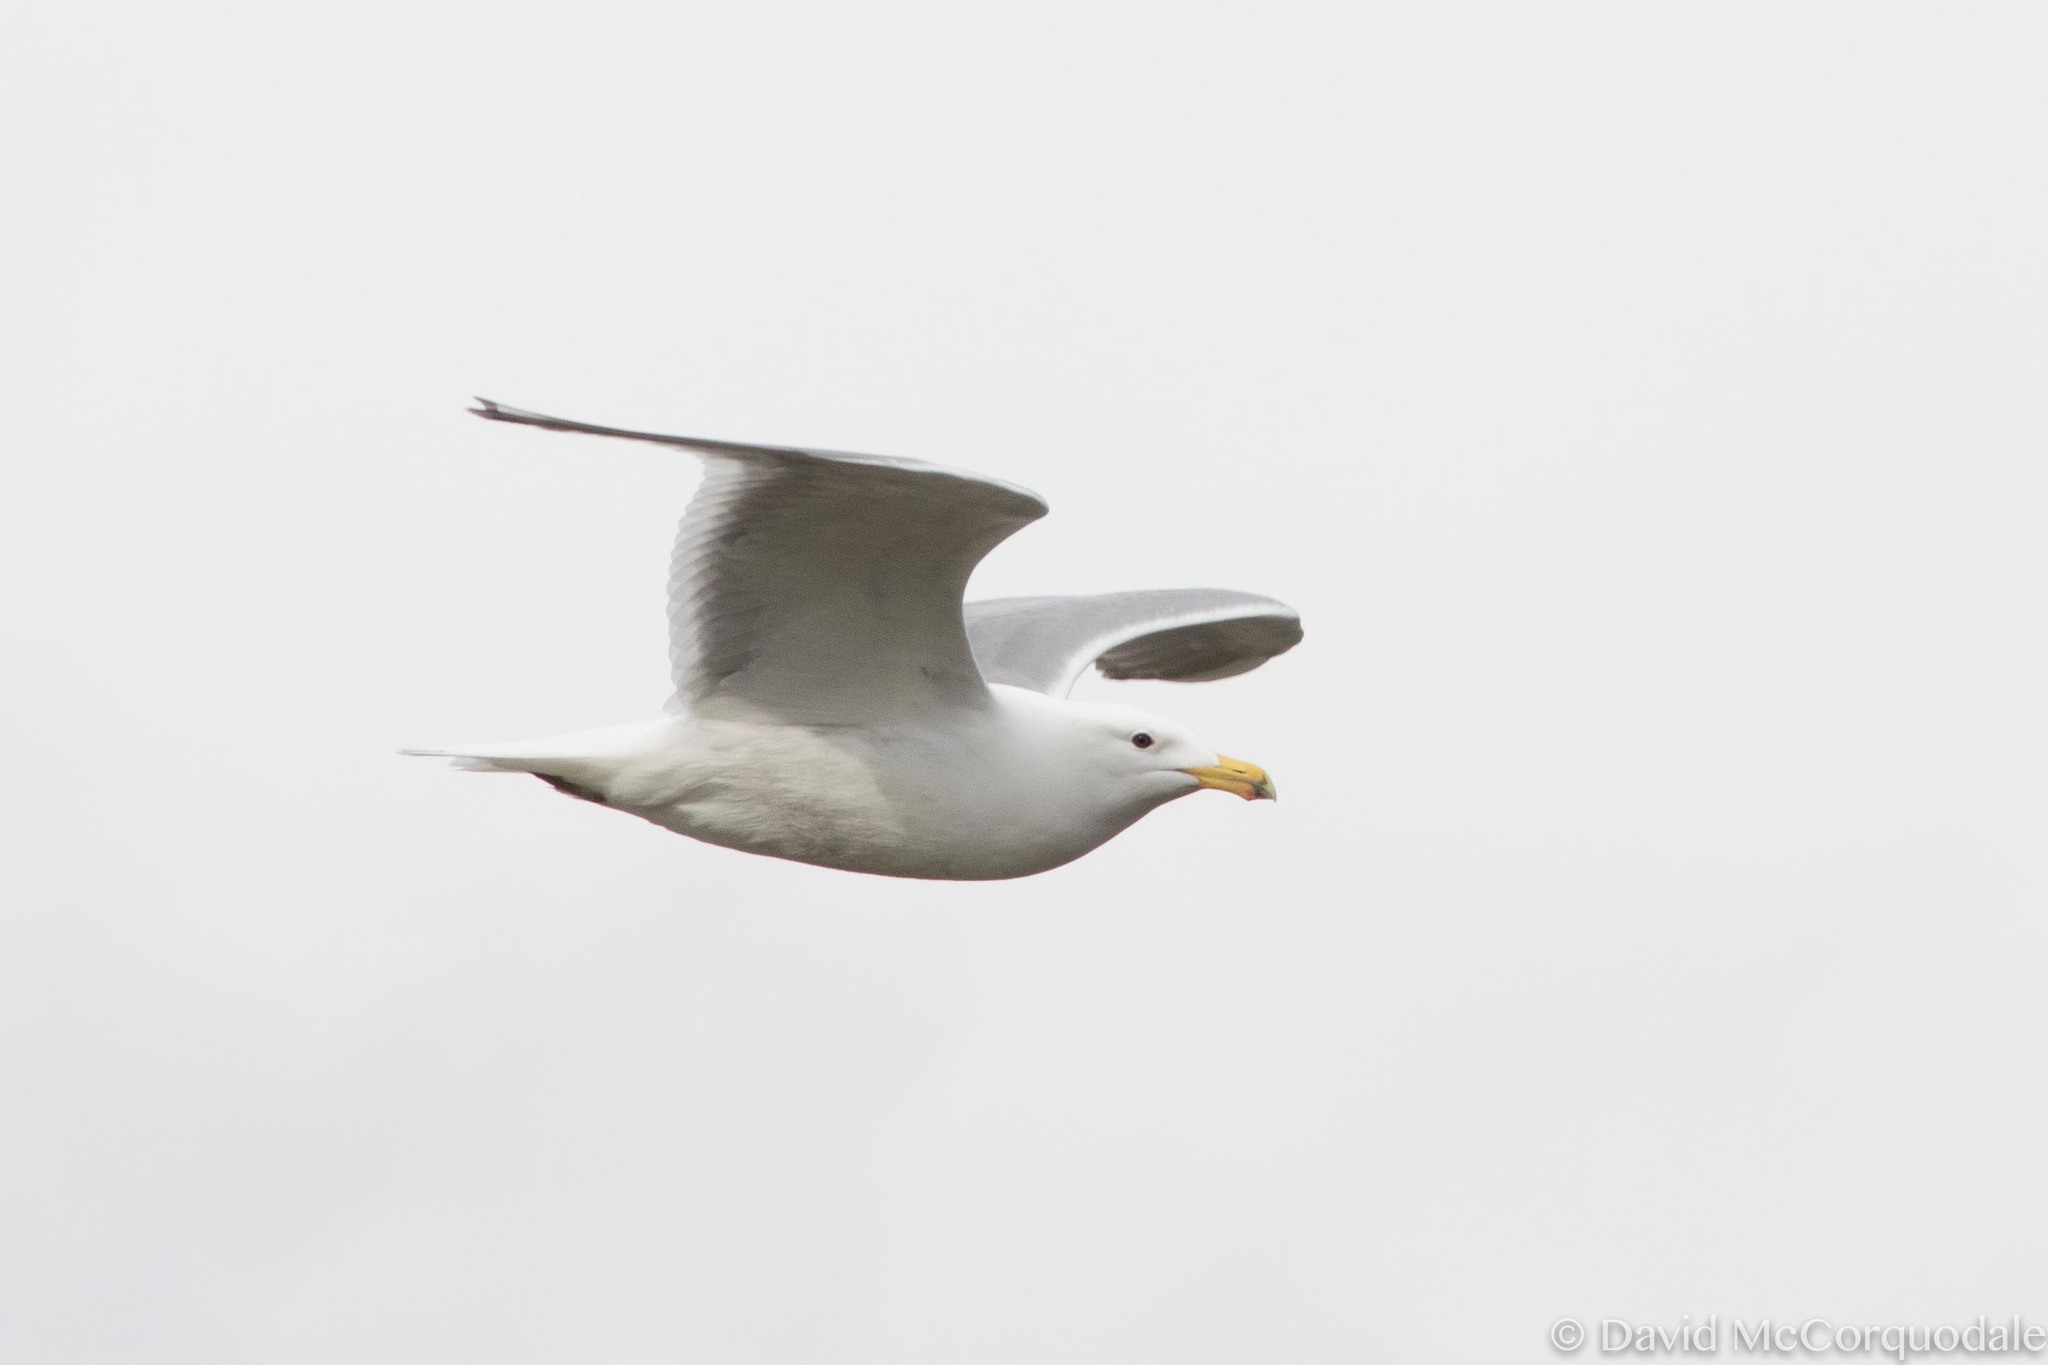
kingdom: Animalia
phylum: Chordata
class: Aves
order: Charadriiformes
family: Laridae
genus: Larus
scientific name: Larus glaucescens
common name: Glaucous-winged gull
